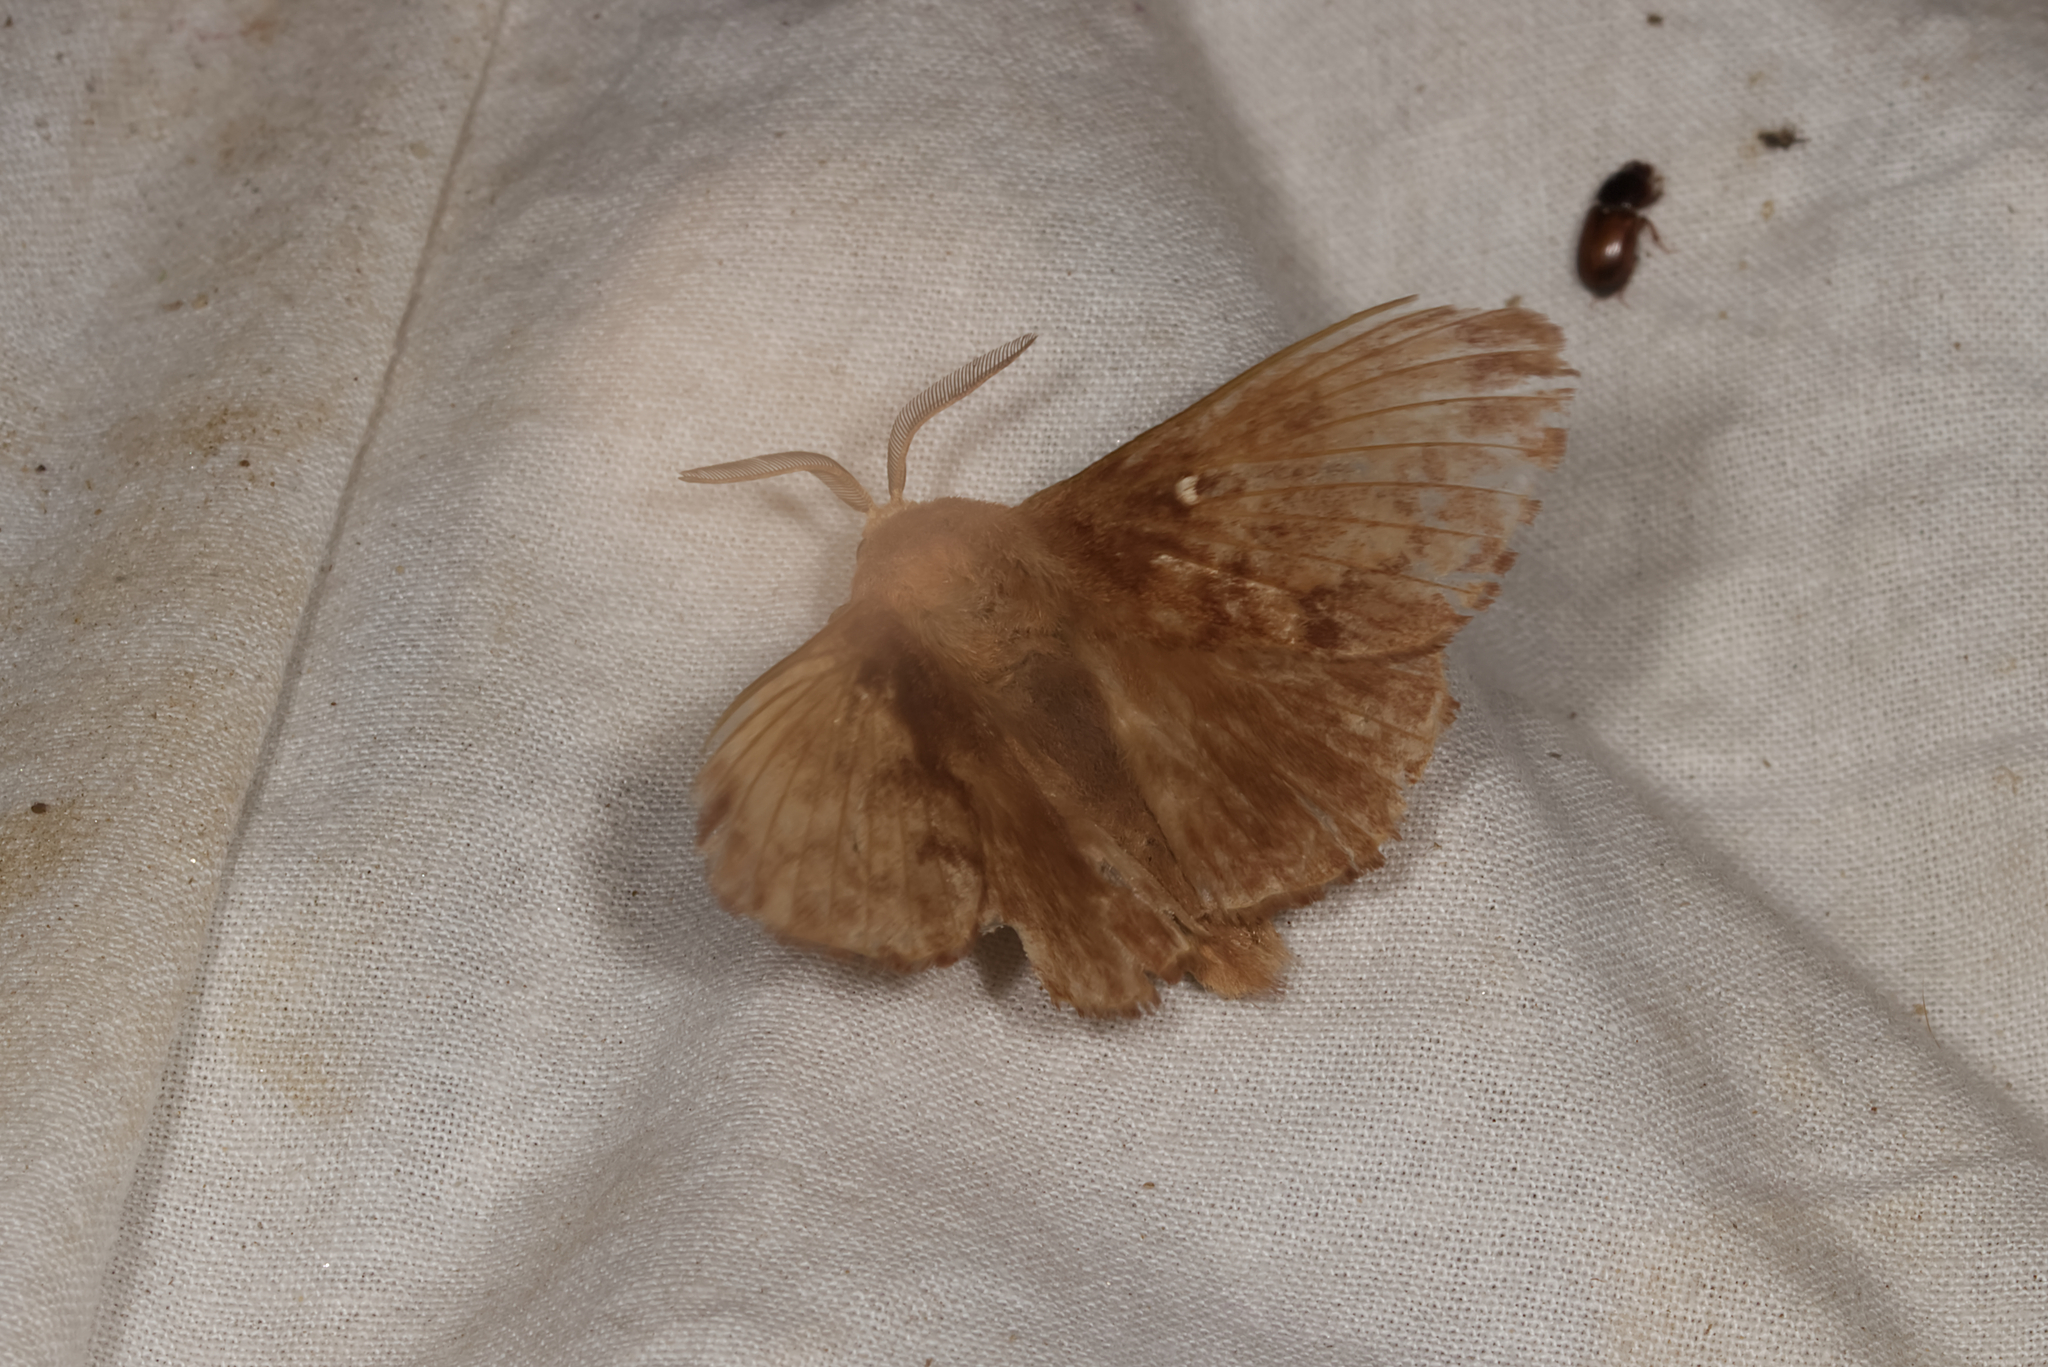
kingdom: Animalia
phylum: Arthropoda
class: Insecta
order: Lepidoptera
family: Lasiocampidae
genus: Dendrolimus
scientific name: Dendrolimus pini
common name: Pine-tree lappet
